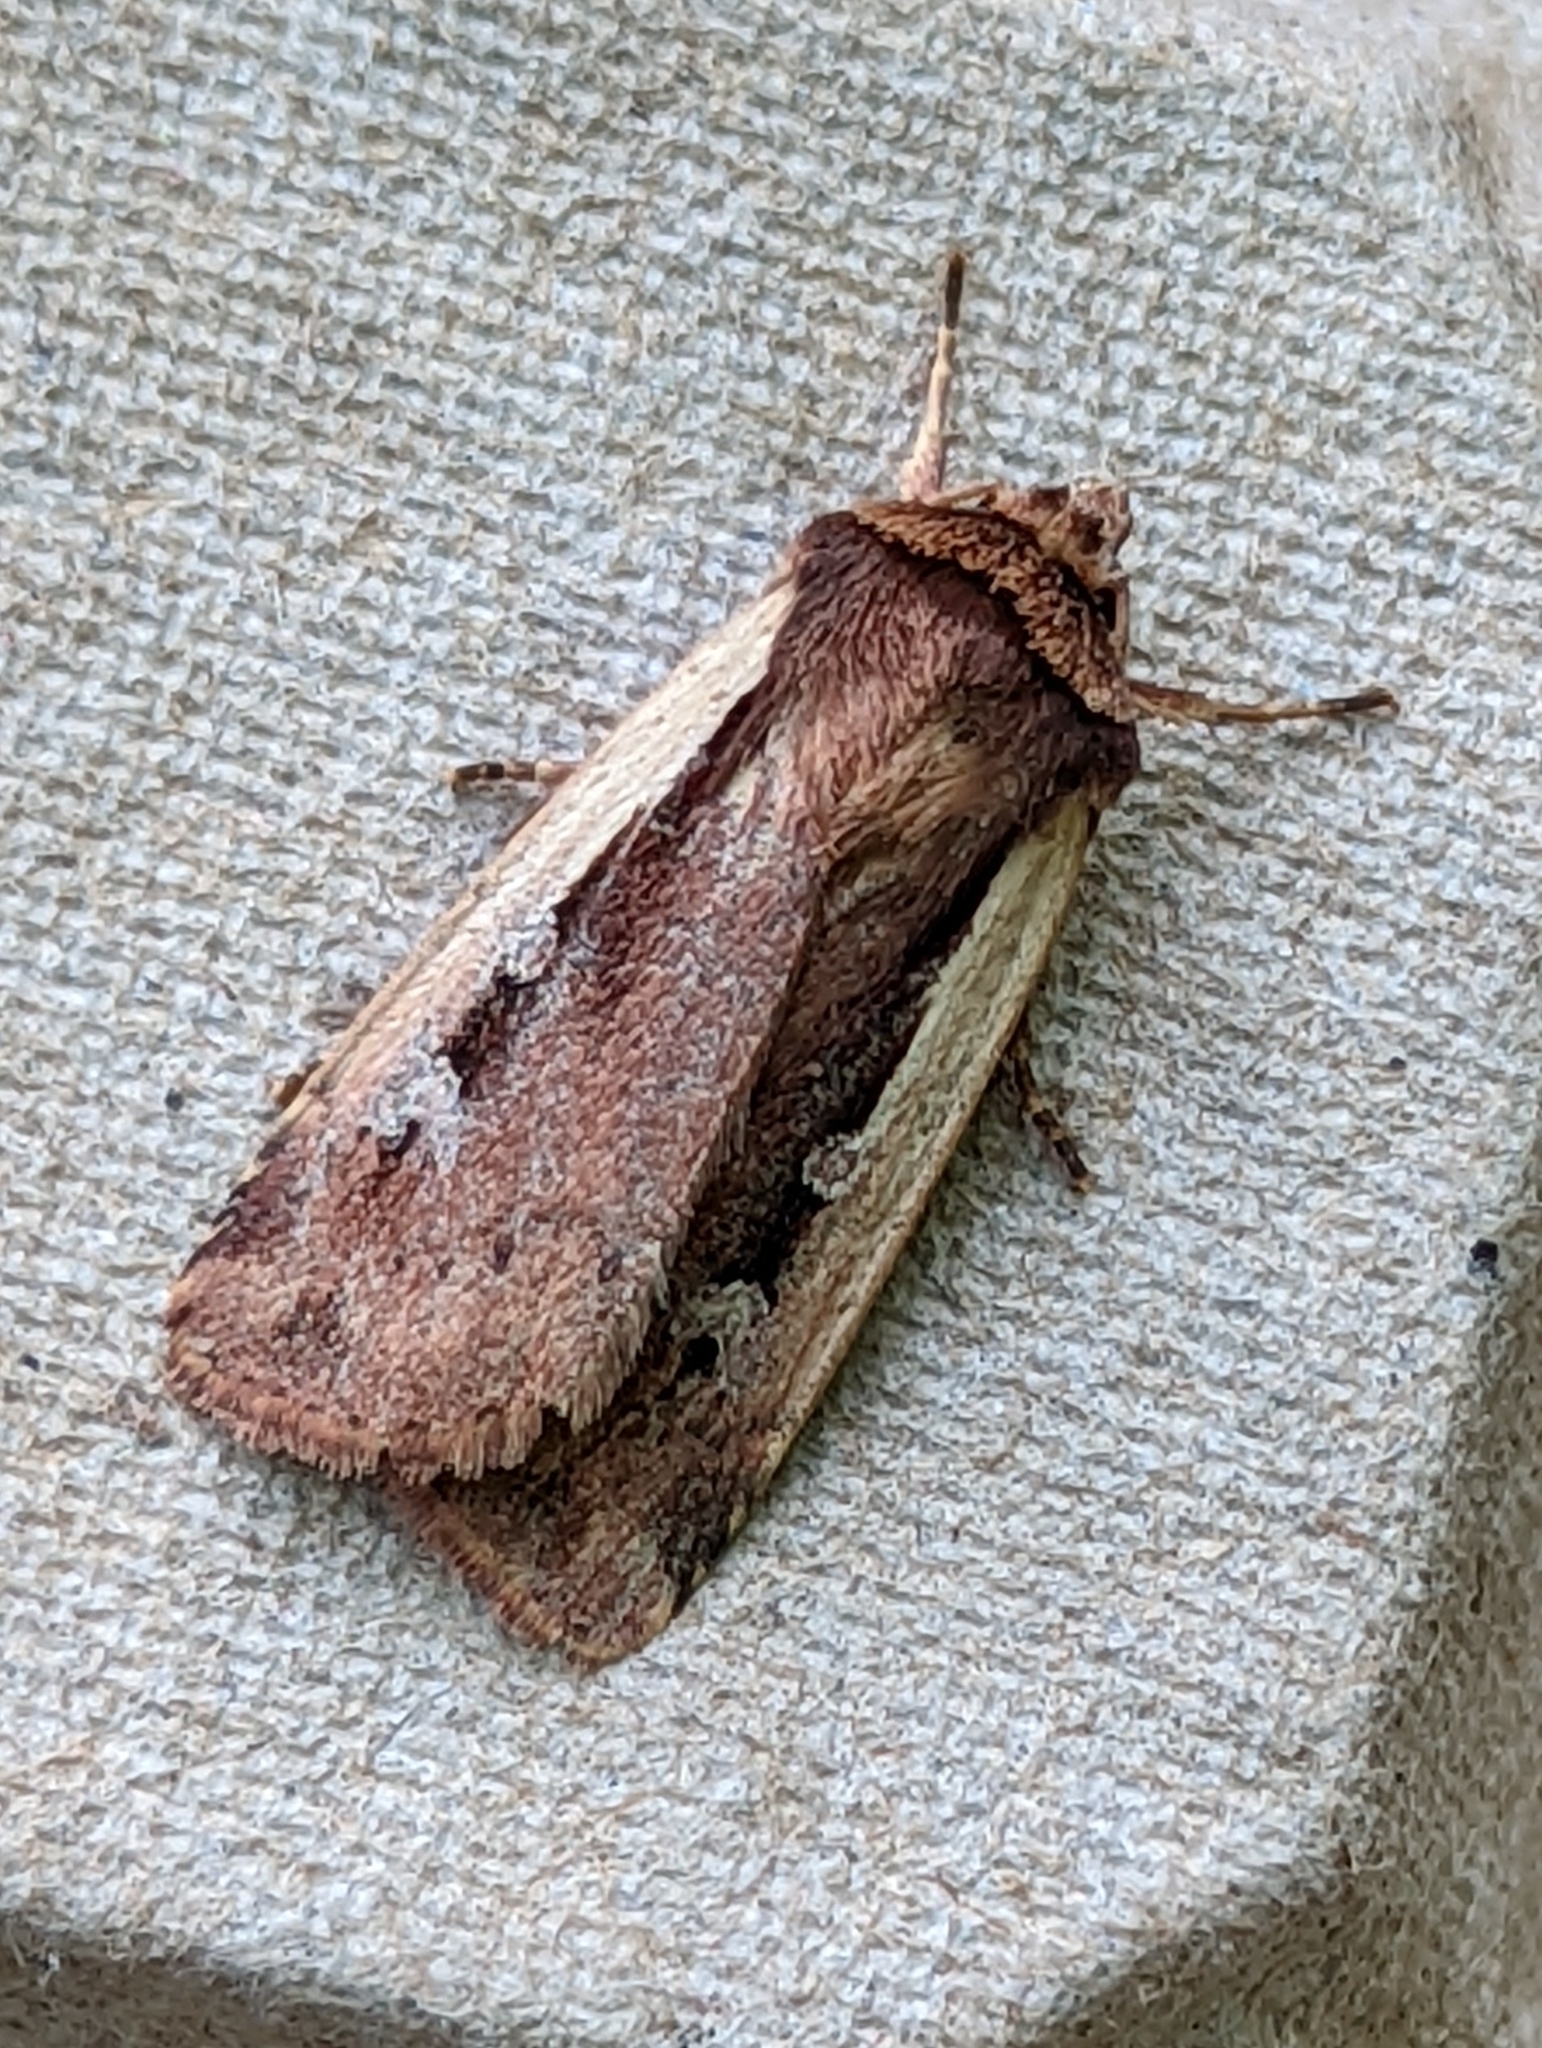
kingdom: Animalia
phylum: Arthropoda
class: Insecta
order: Lepidoptera
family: Noctuidae
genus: Ochropleura
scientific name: Ochropleura plecta
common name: Flame shoulder
